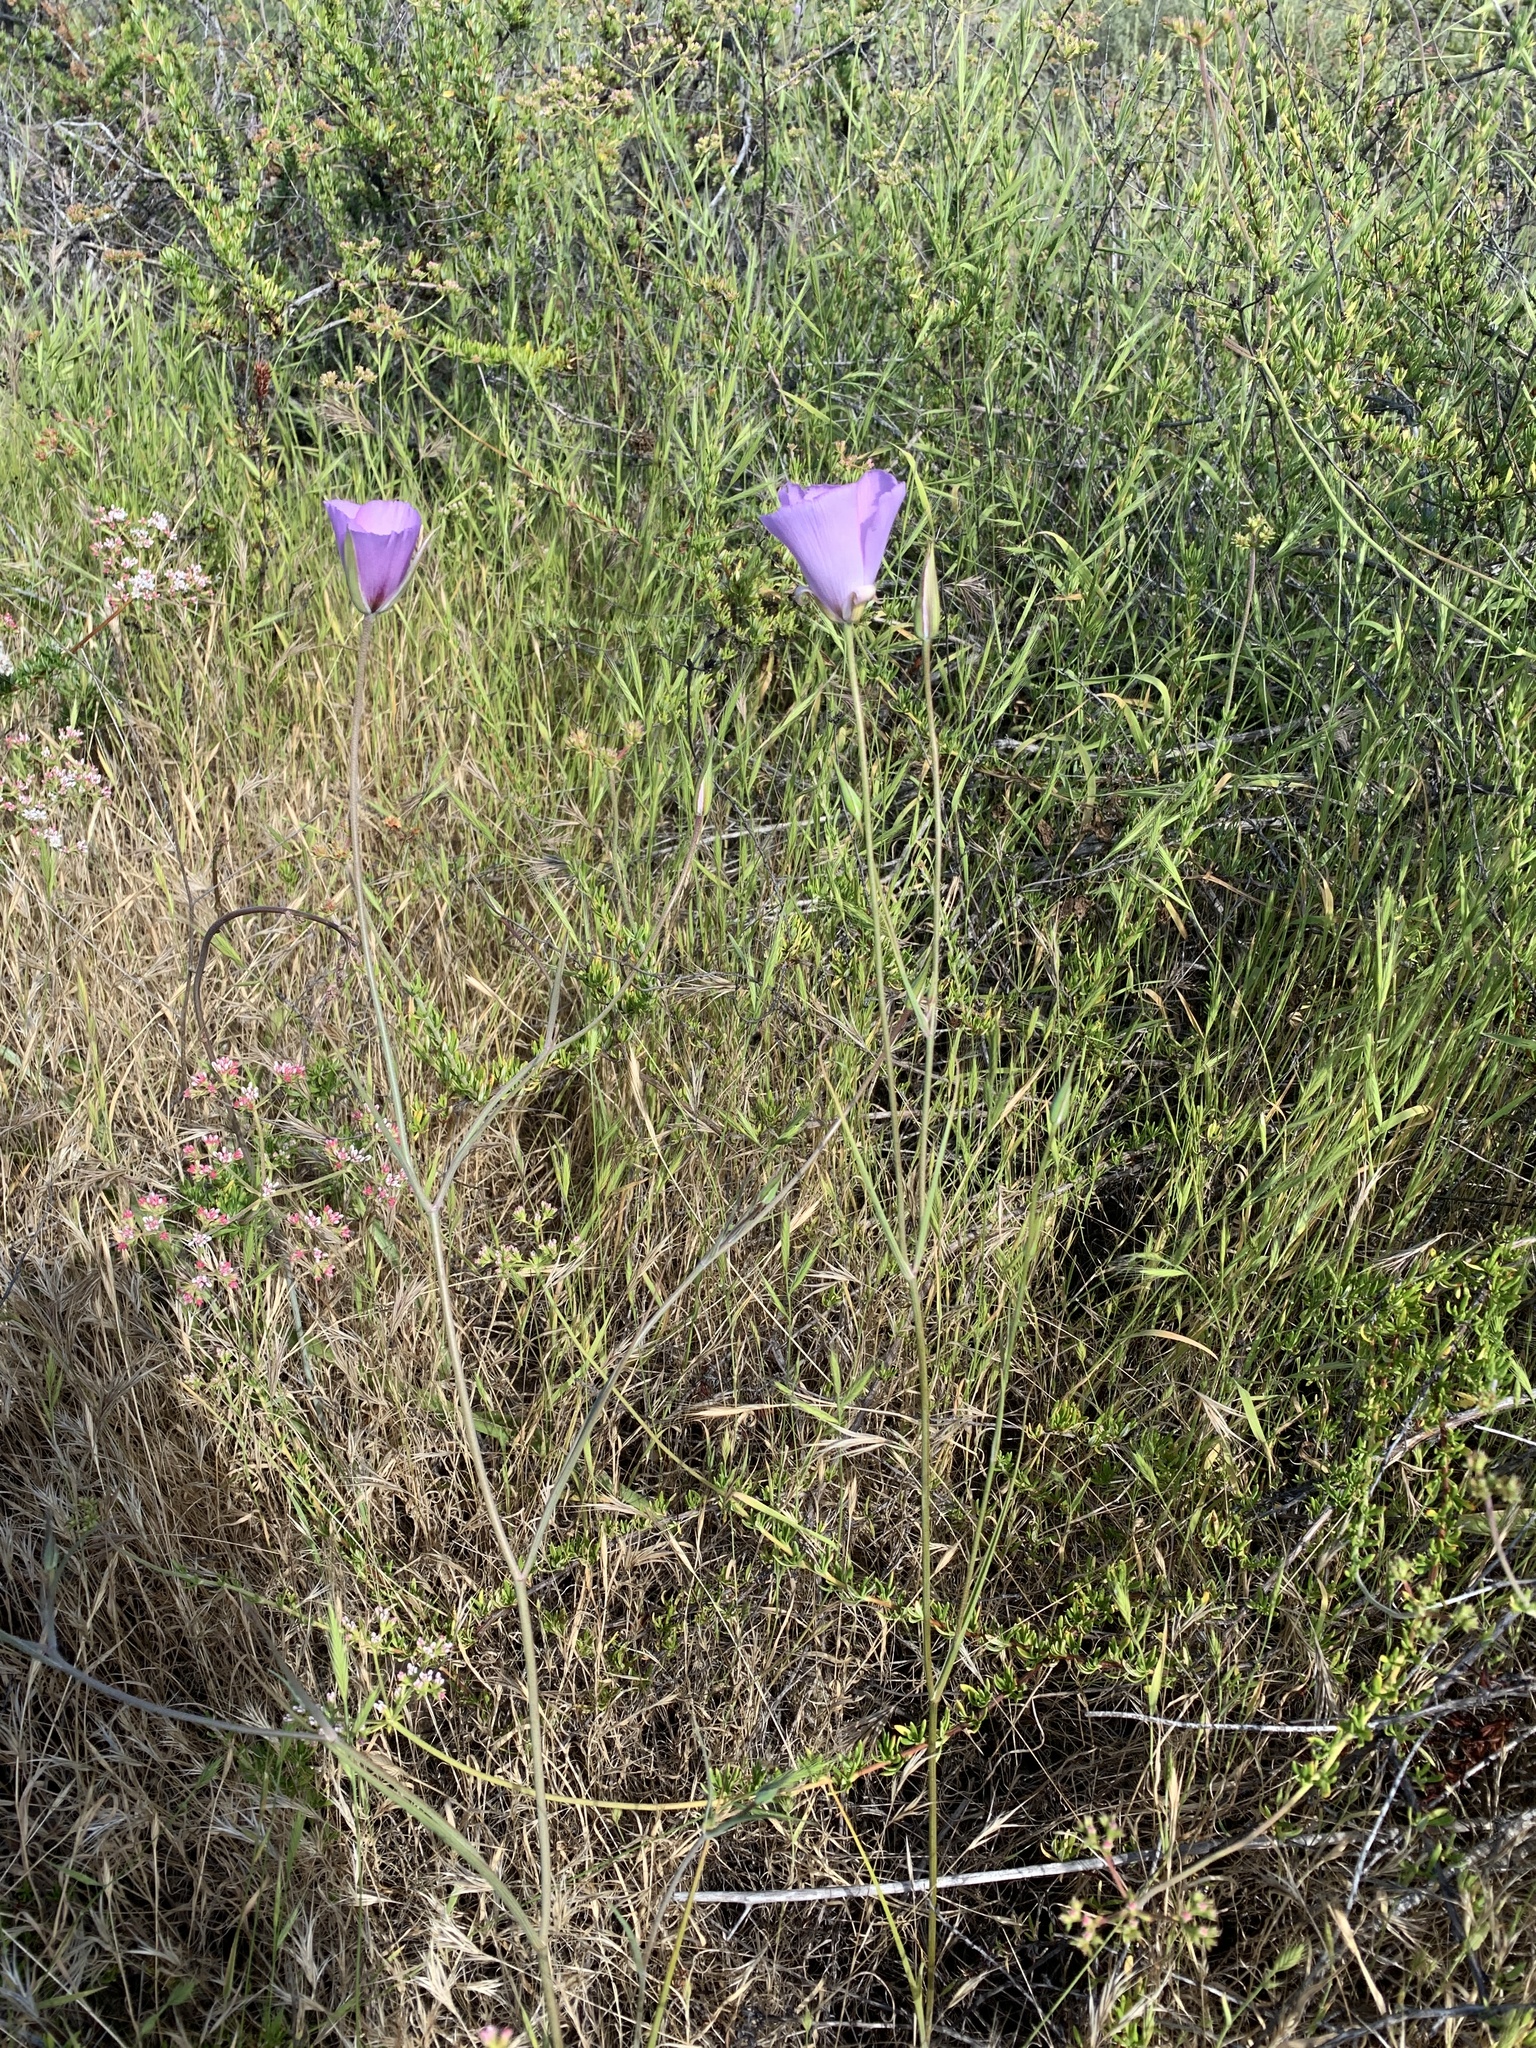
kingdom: Plantae
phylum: Tracheophyta
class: Liliopsida
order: Liliales
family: Liliaceae
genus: Calochortus
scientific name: Calochortus splendens
